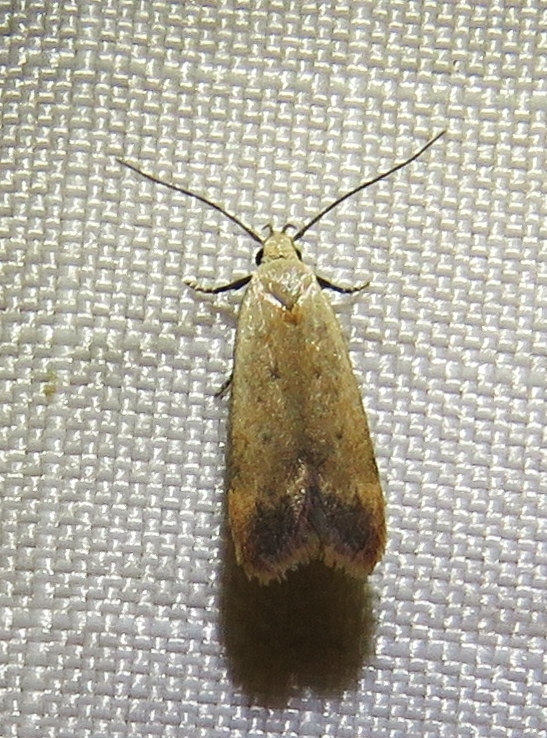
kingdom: Animalia
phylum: Arthropoda
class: Insecta
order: Lepidoptera
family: Gelechiidae
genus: Anacampsis
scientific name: Anacampsis fullonella
